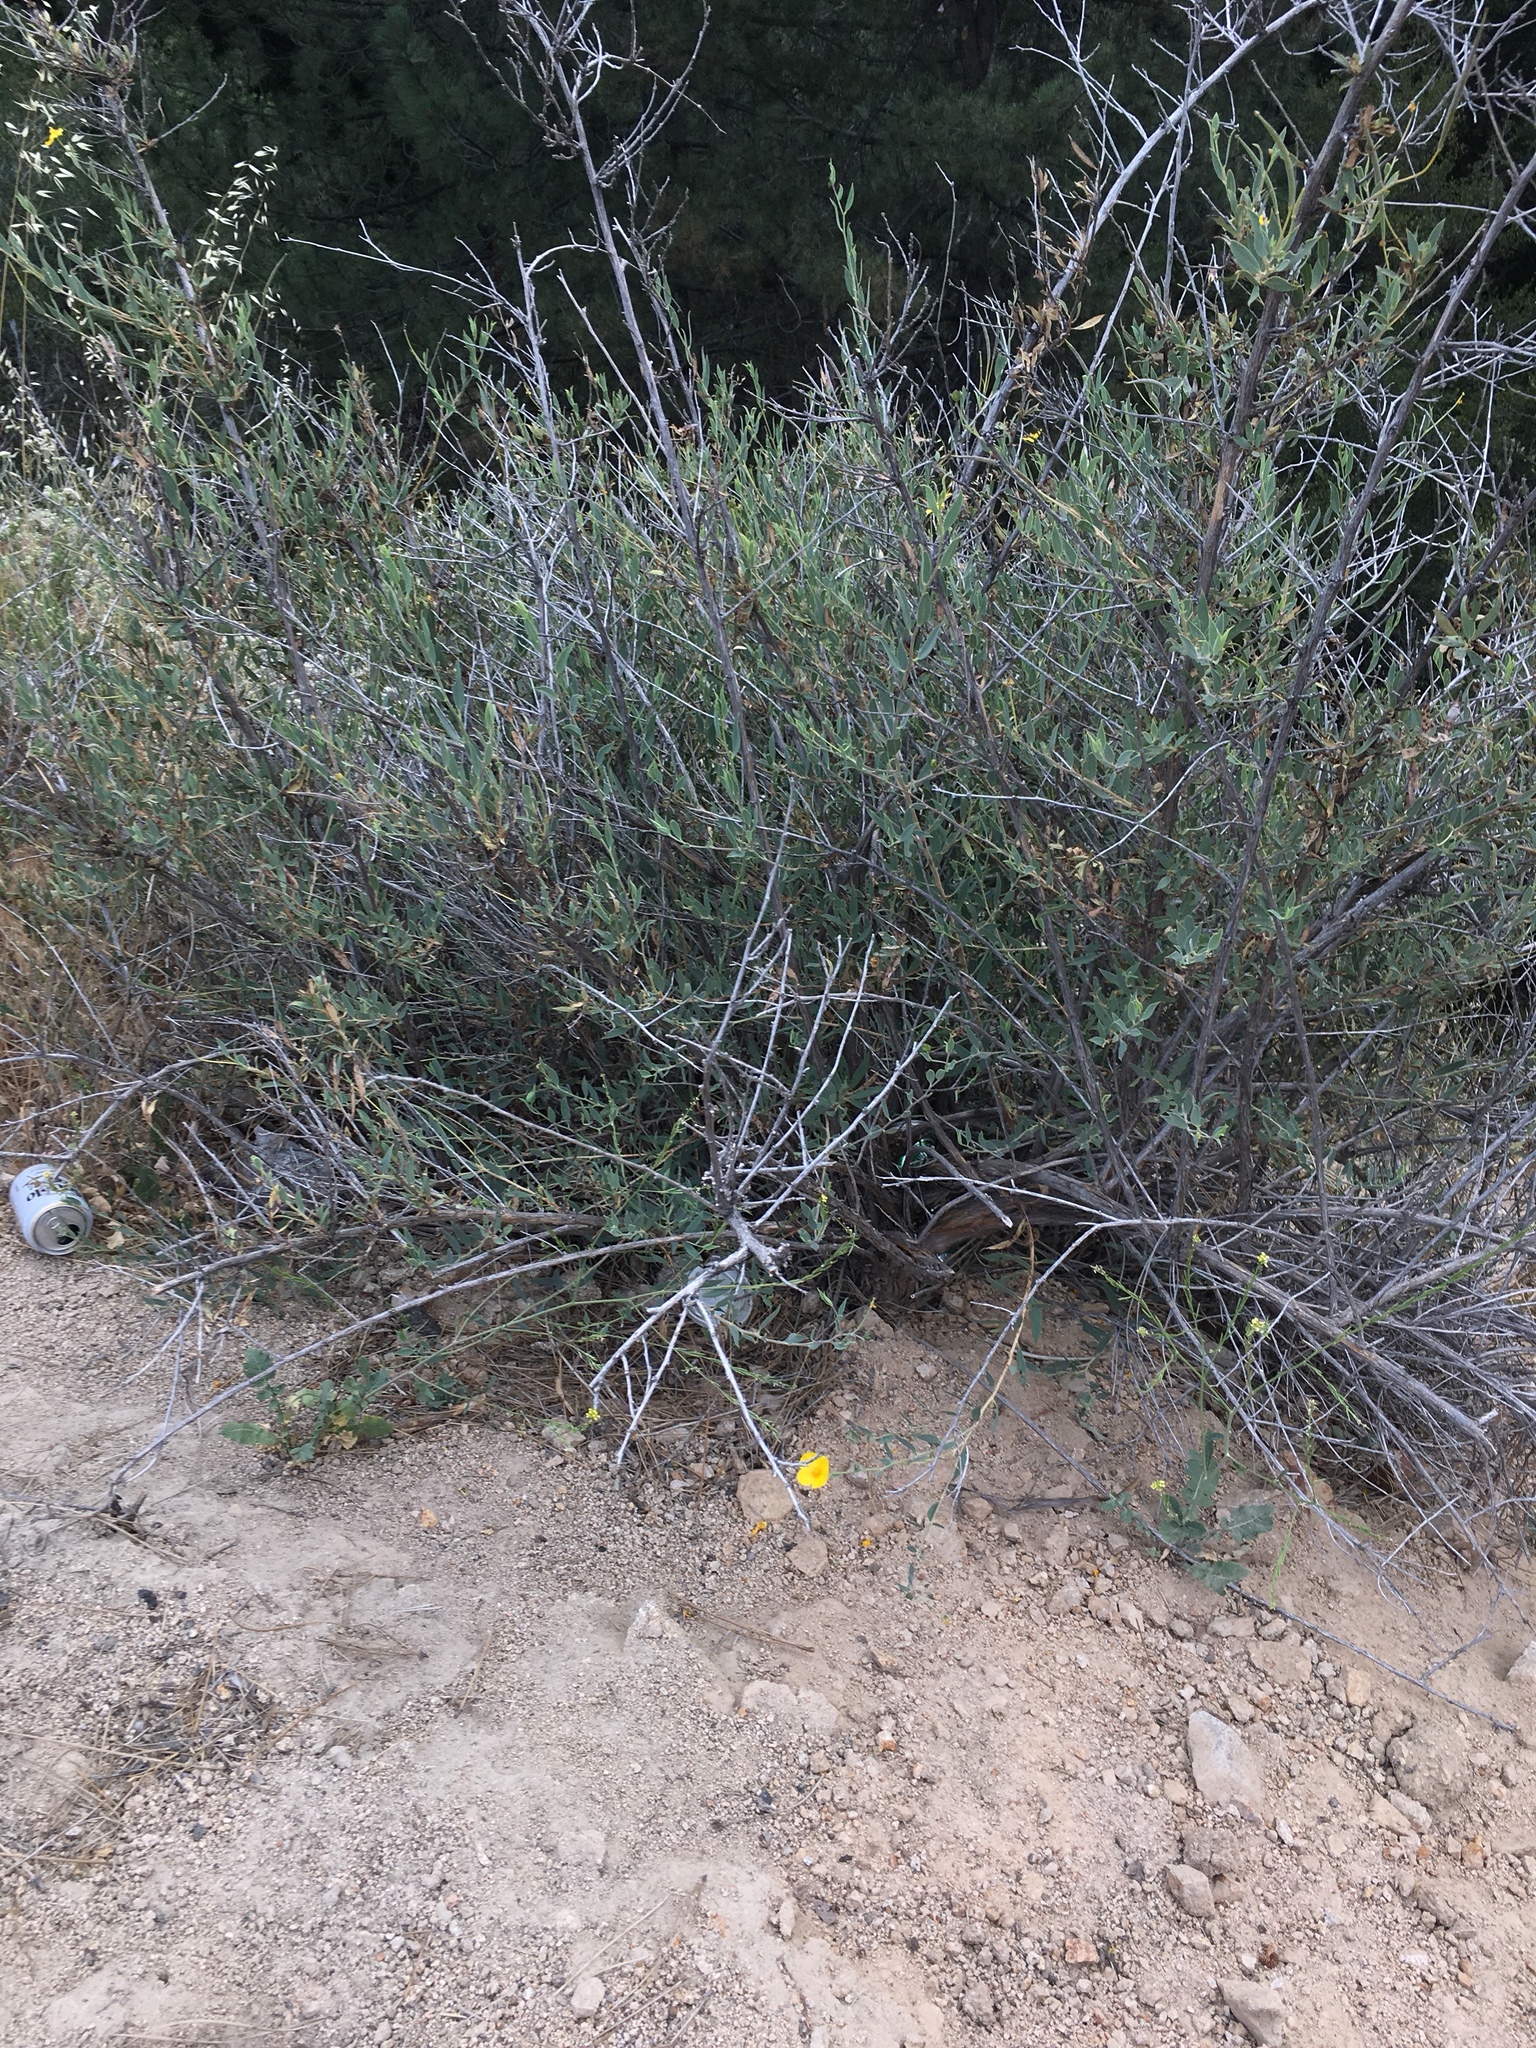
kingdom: Plantae
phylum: Tracheophyta
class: Magnoliopsida
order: Ranunculales
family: Papaveraceae
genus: Dendromecon
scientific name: Dendromecon rigida
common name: Tree poppy
